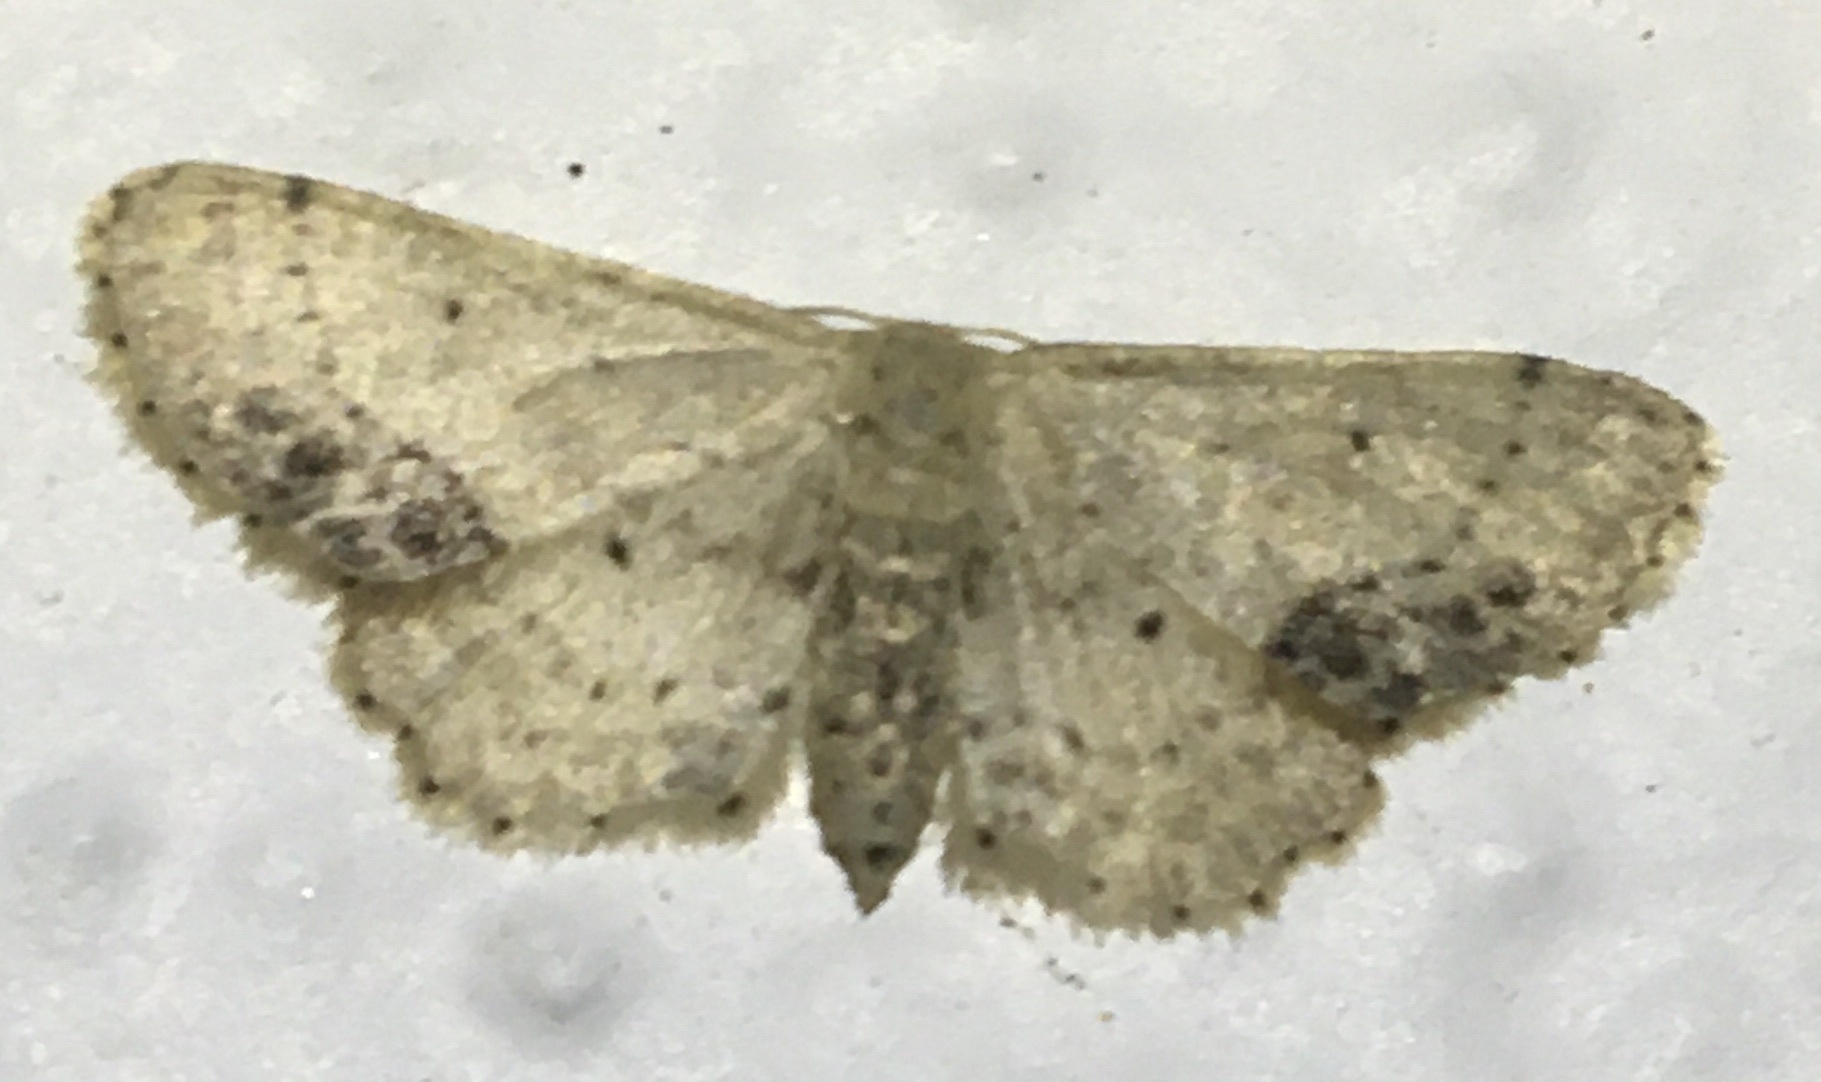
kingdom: Animalia
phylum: Arthropoda
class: Insecta
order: Lepidoptera
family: Geometridae
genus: Idaea
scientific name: Idaea dimidiata
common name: Single-dotted wave
